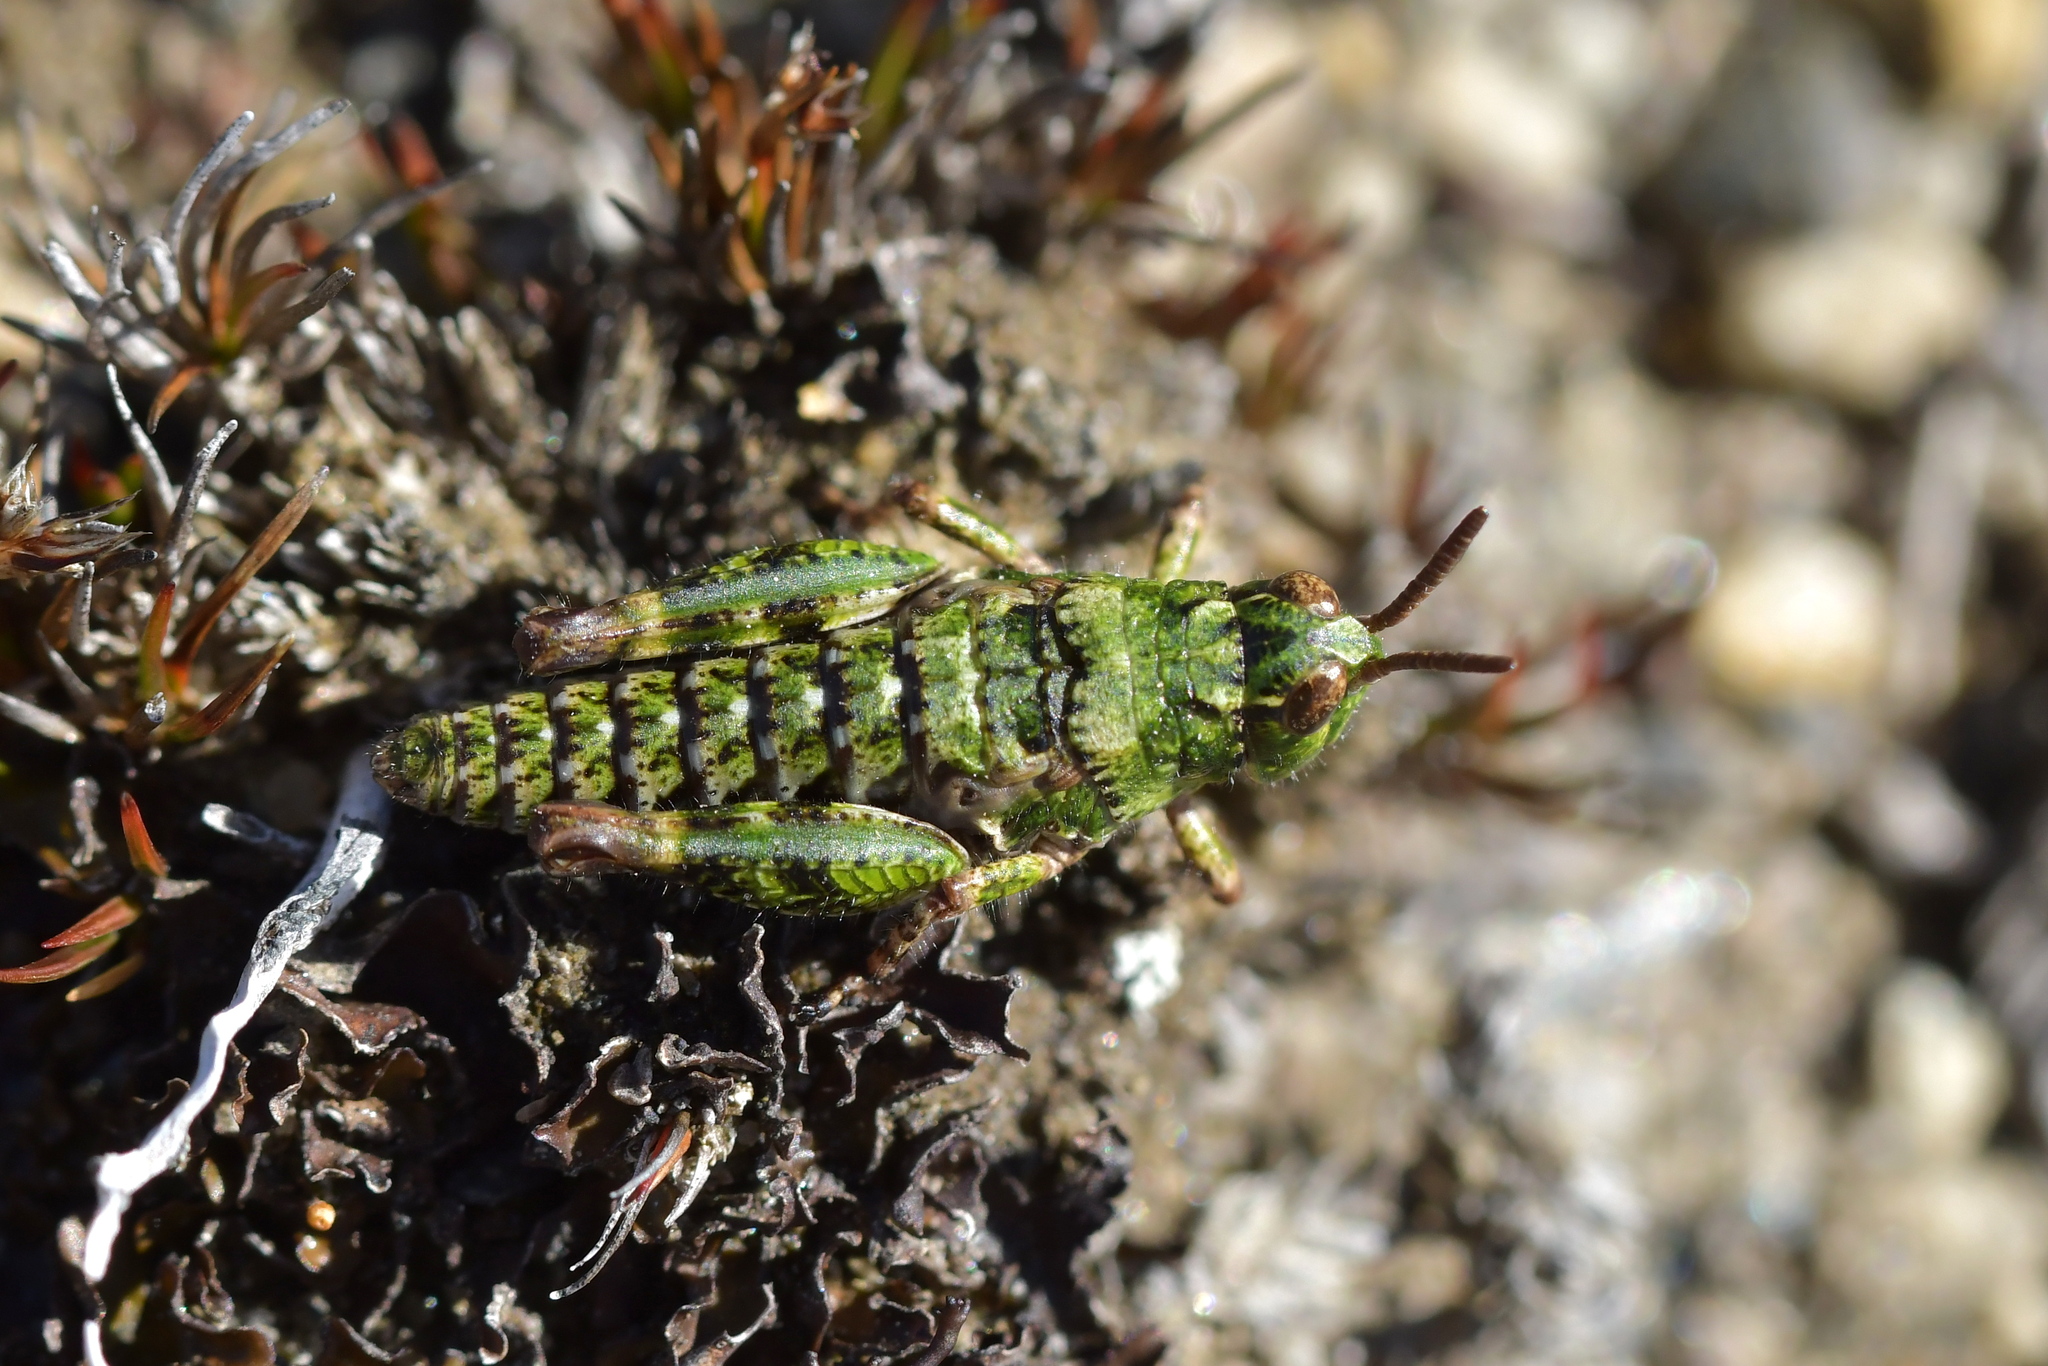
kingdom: Animalia
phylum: Arthropoda
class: Insecta
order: Orthoptera
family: Acrididae
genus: Sigaus
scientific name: Sigaus australis
